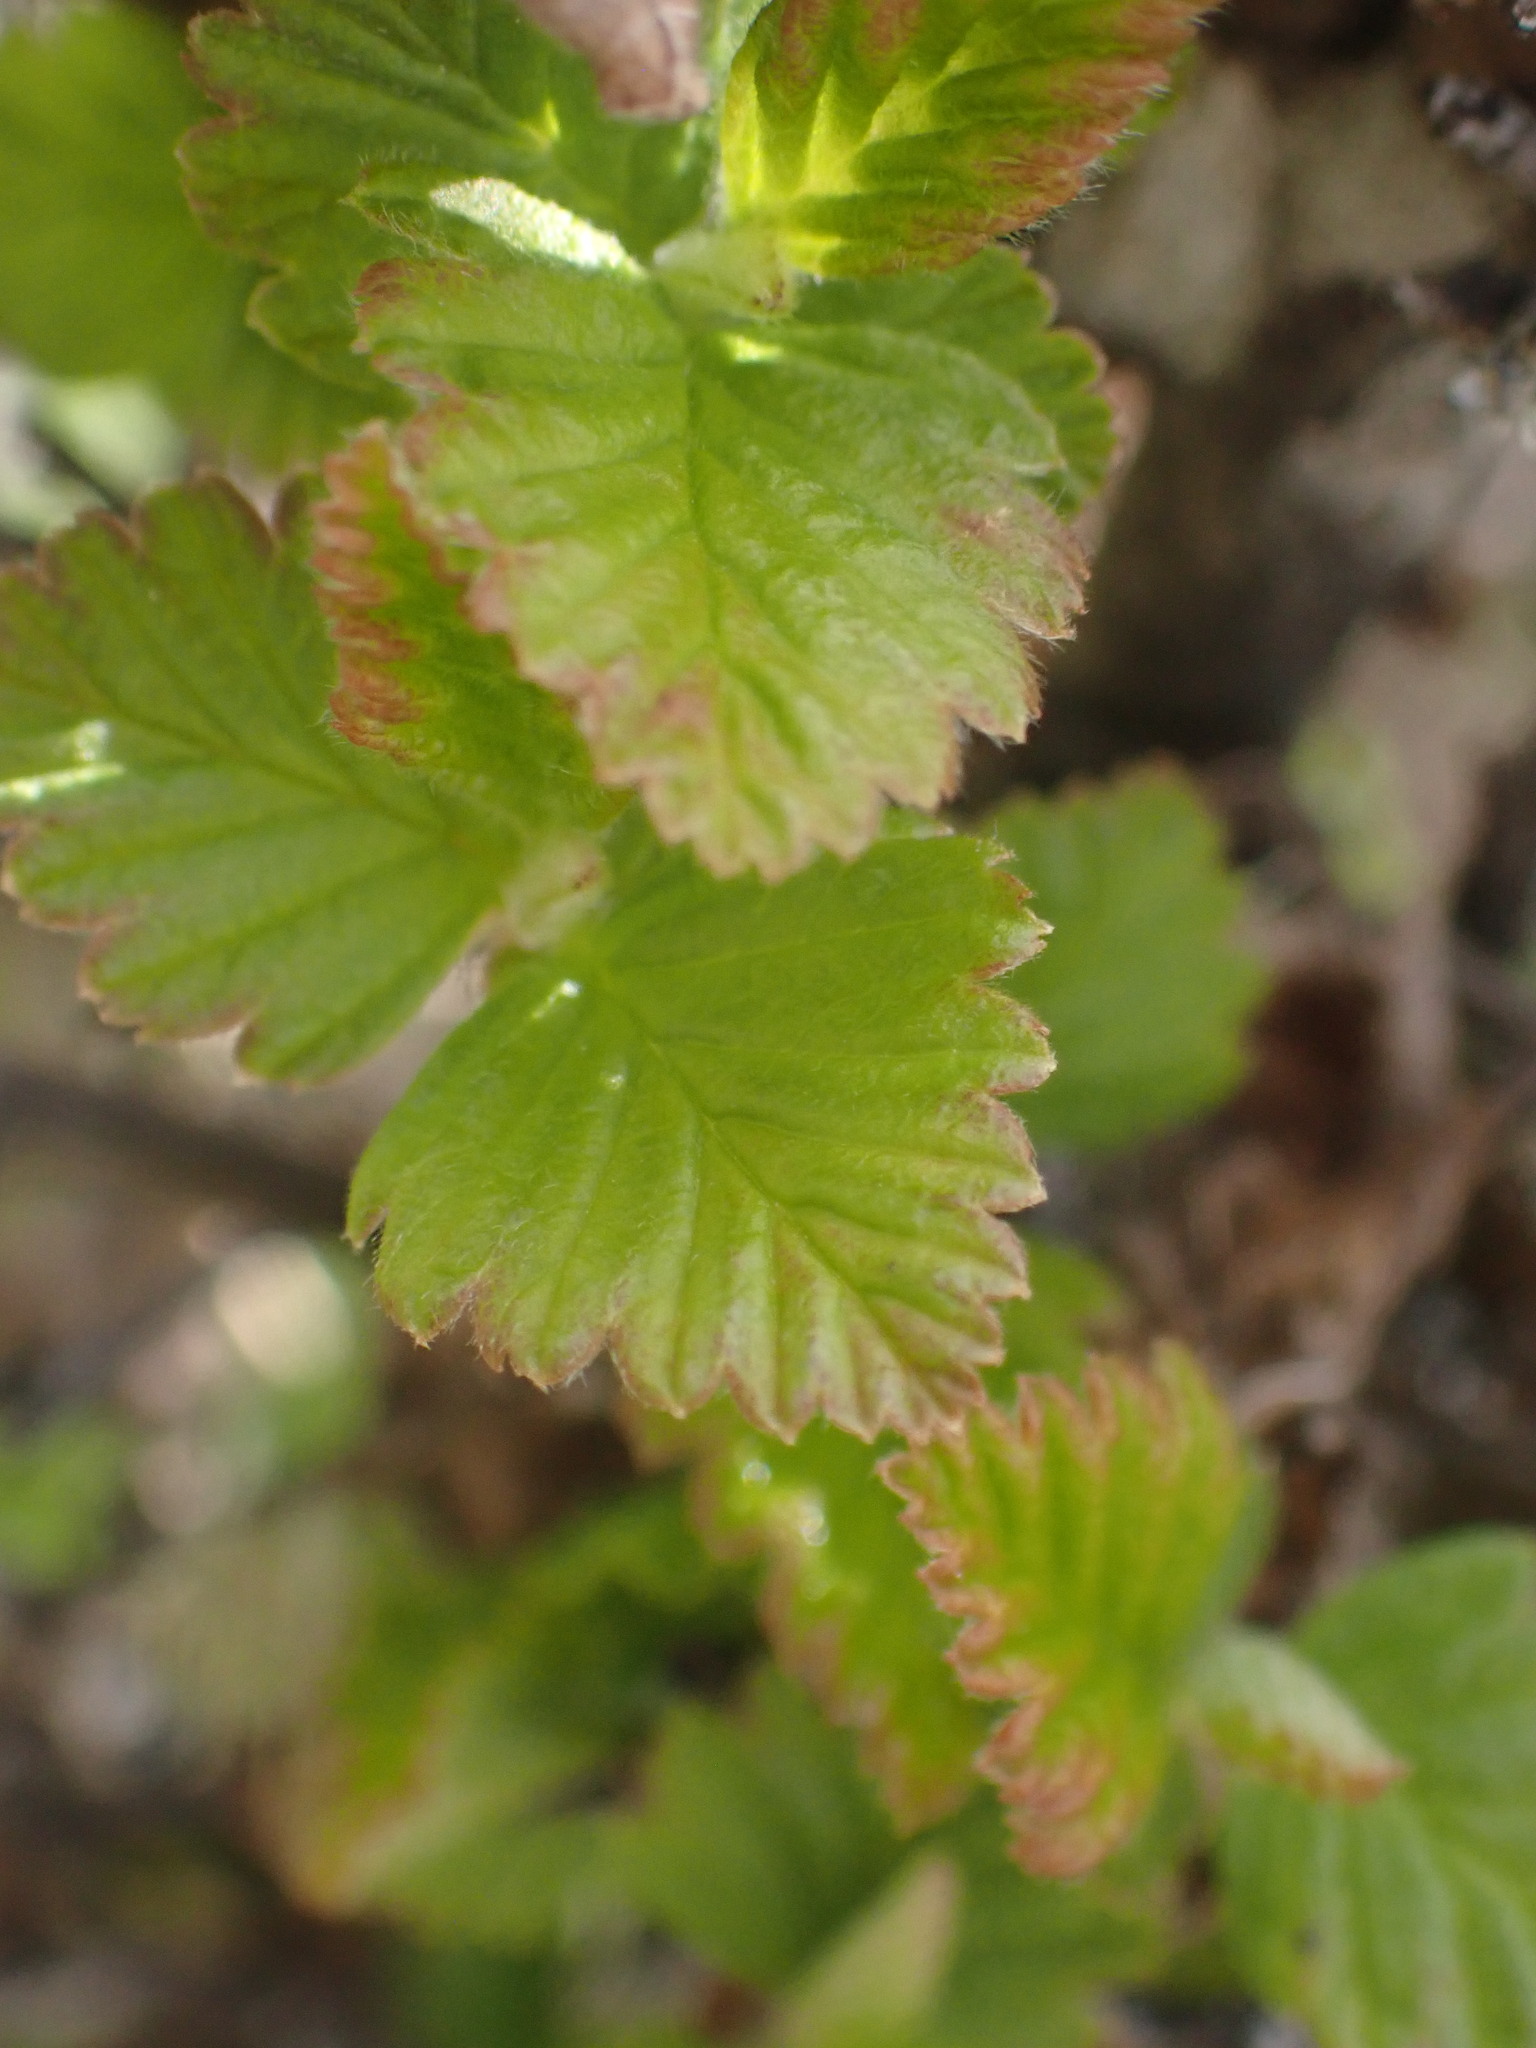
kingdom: Plantae
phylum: Tracheophyta
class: Magnoliopsida
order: Rosales
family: Rosaceae
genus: Holodiscus
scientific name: Holodiscus discolor
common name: Oceanspray
